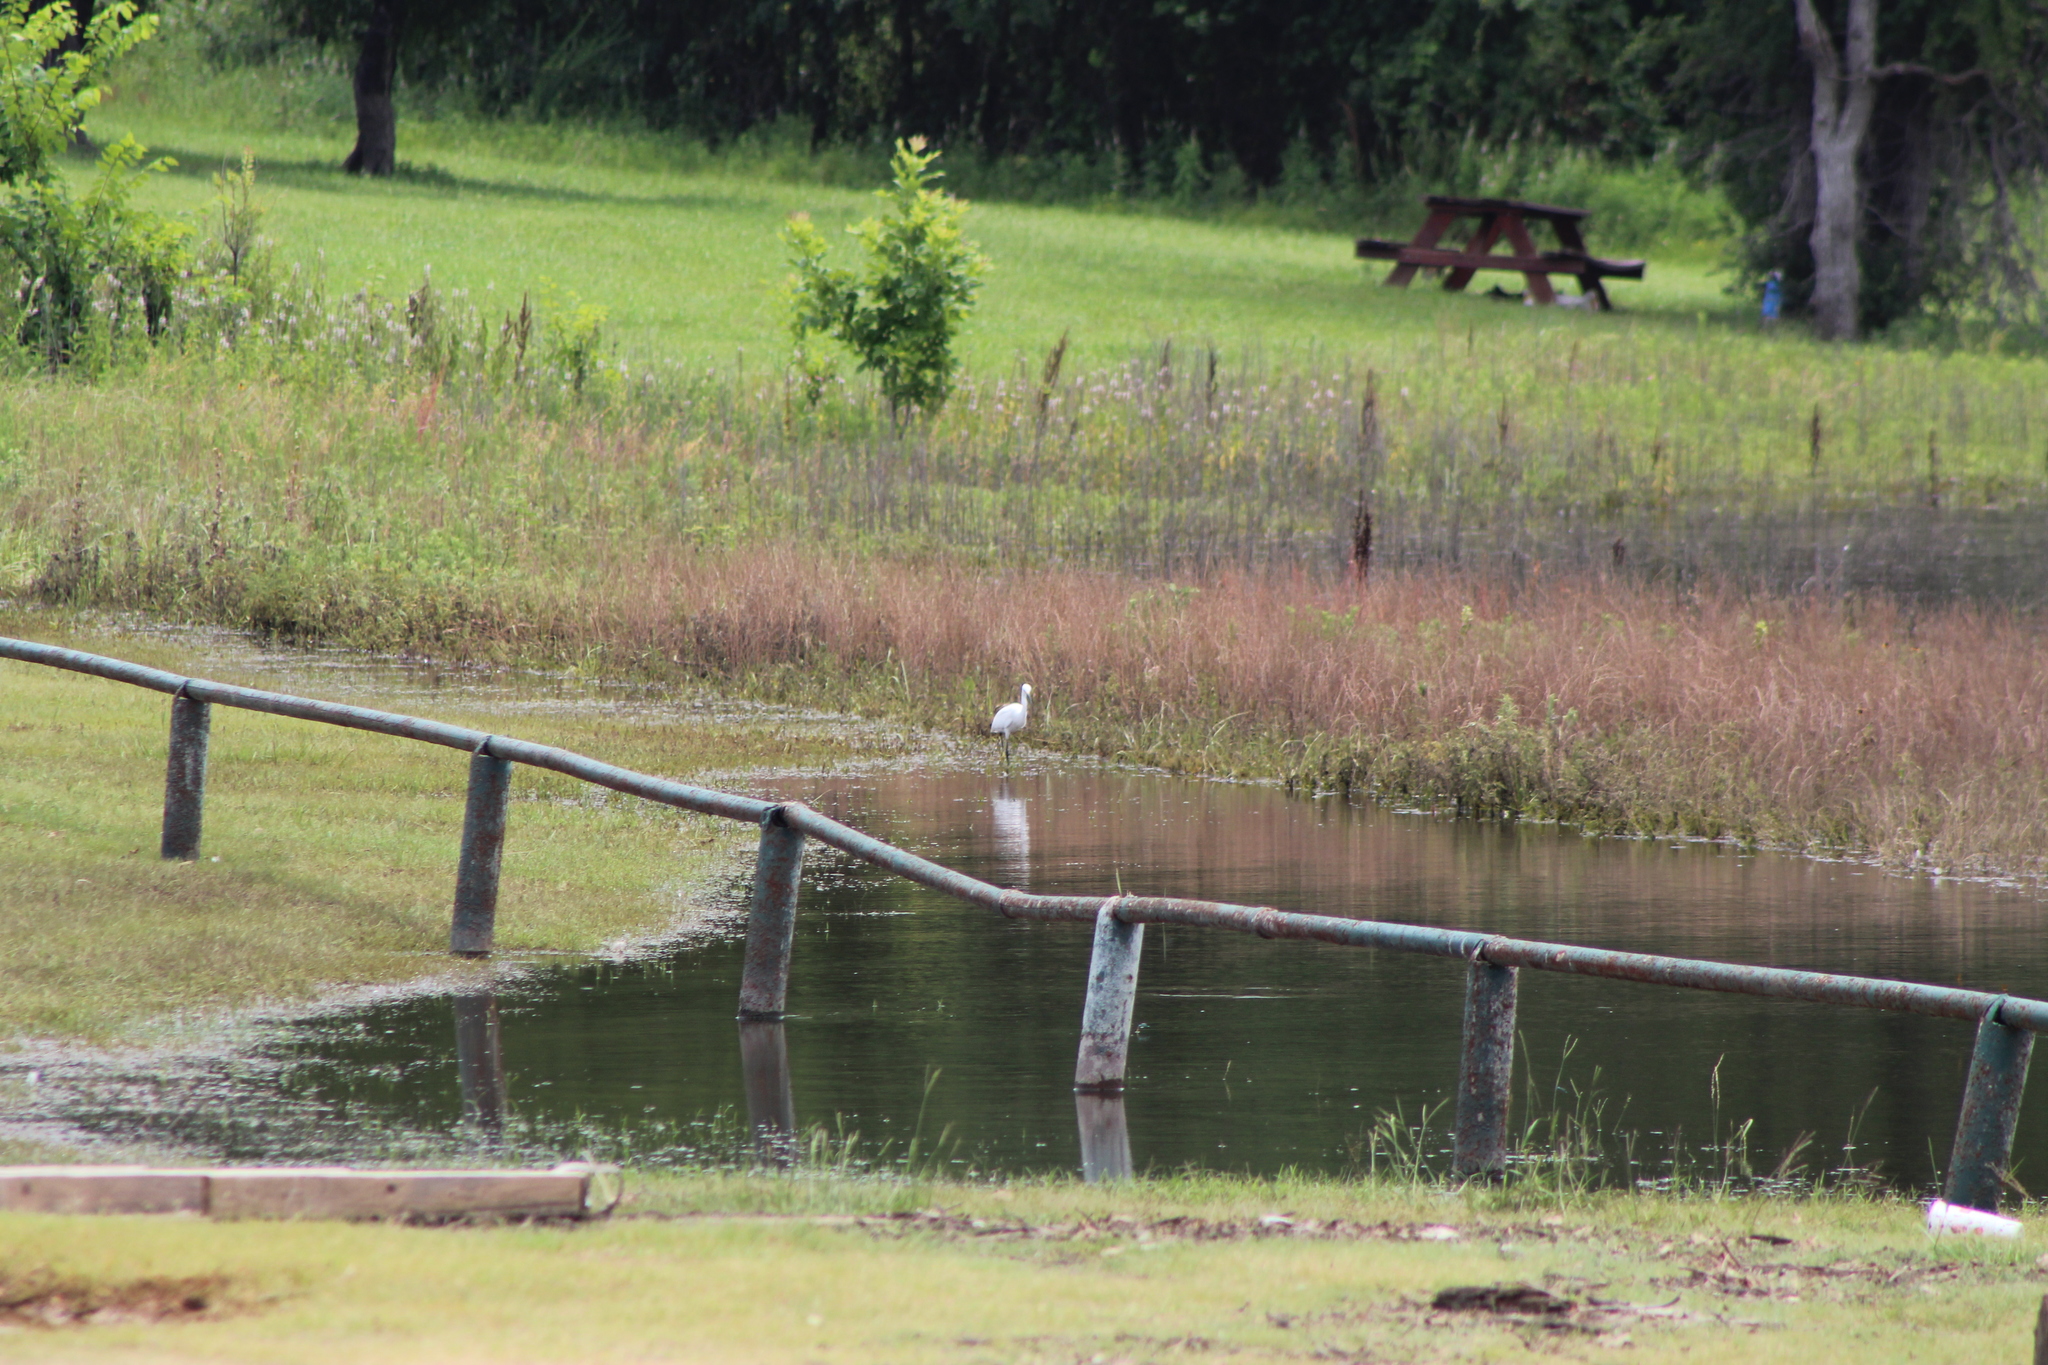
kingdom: Animalia
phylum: Chordata
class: Aves
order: Pelecaniformes
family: Ardeidae
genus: Egretta
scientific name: Egretta thula
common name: Snowy egret
